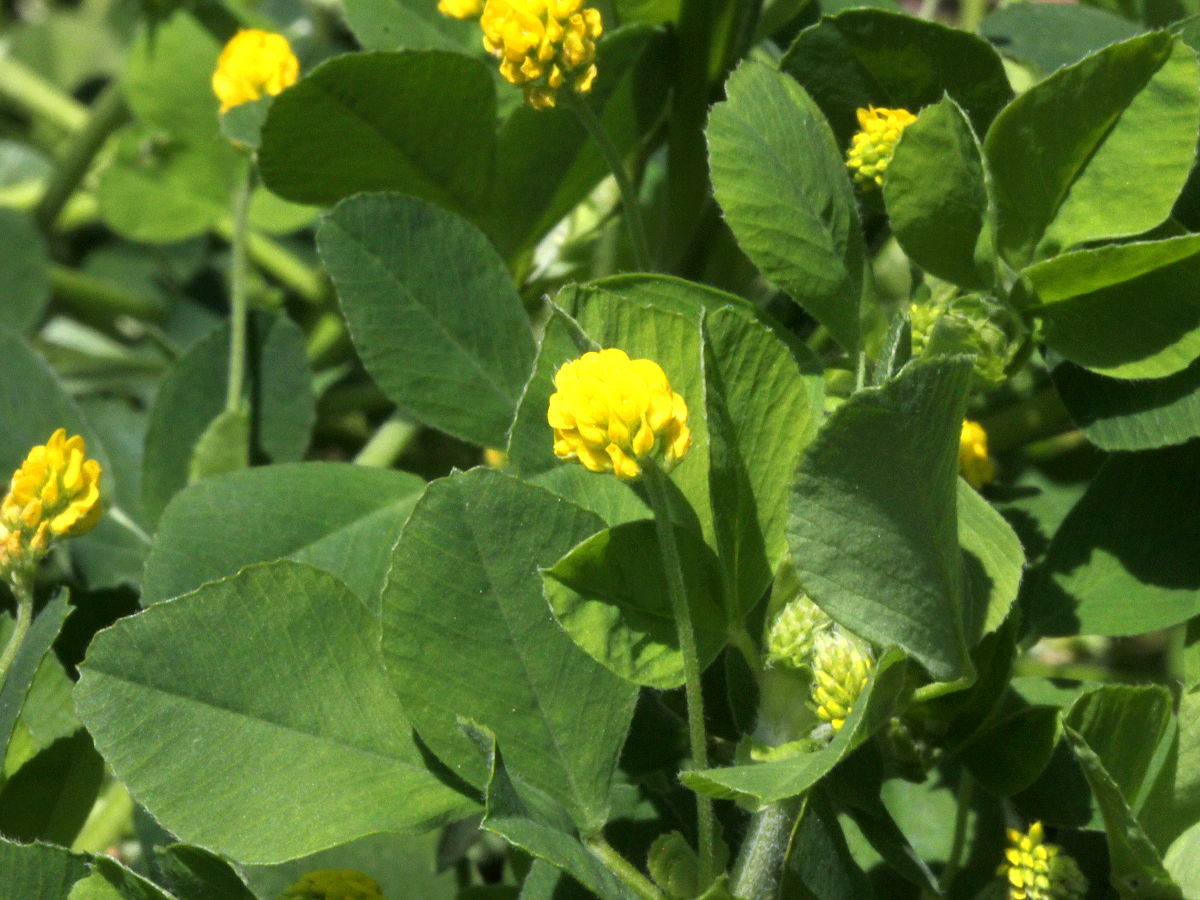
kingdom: Plantae
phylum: Tracheophyta
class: Magnoliopsida
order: Fabales
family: Fabaceae
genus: Medicago
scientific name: Medicago lupulina
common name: Black medick
